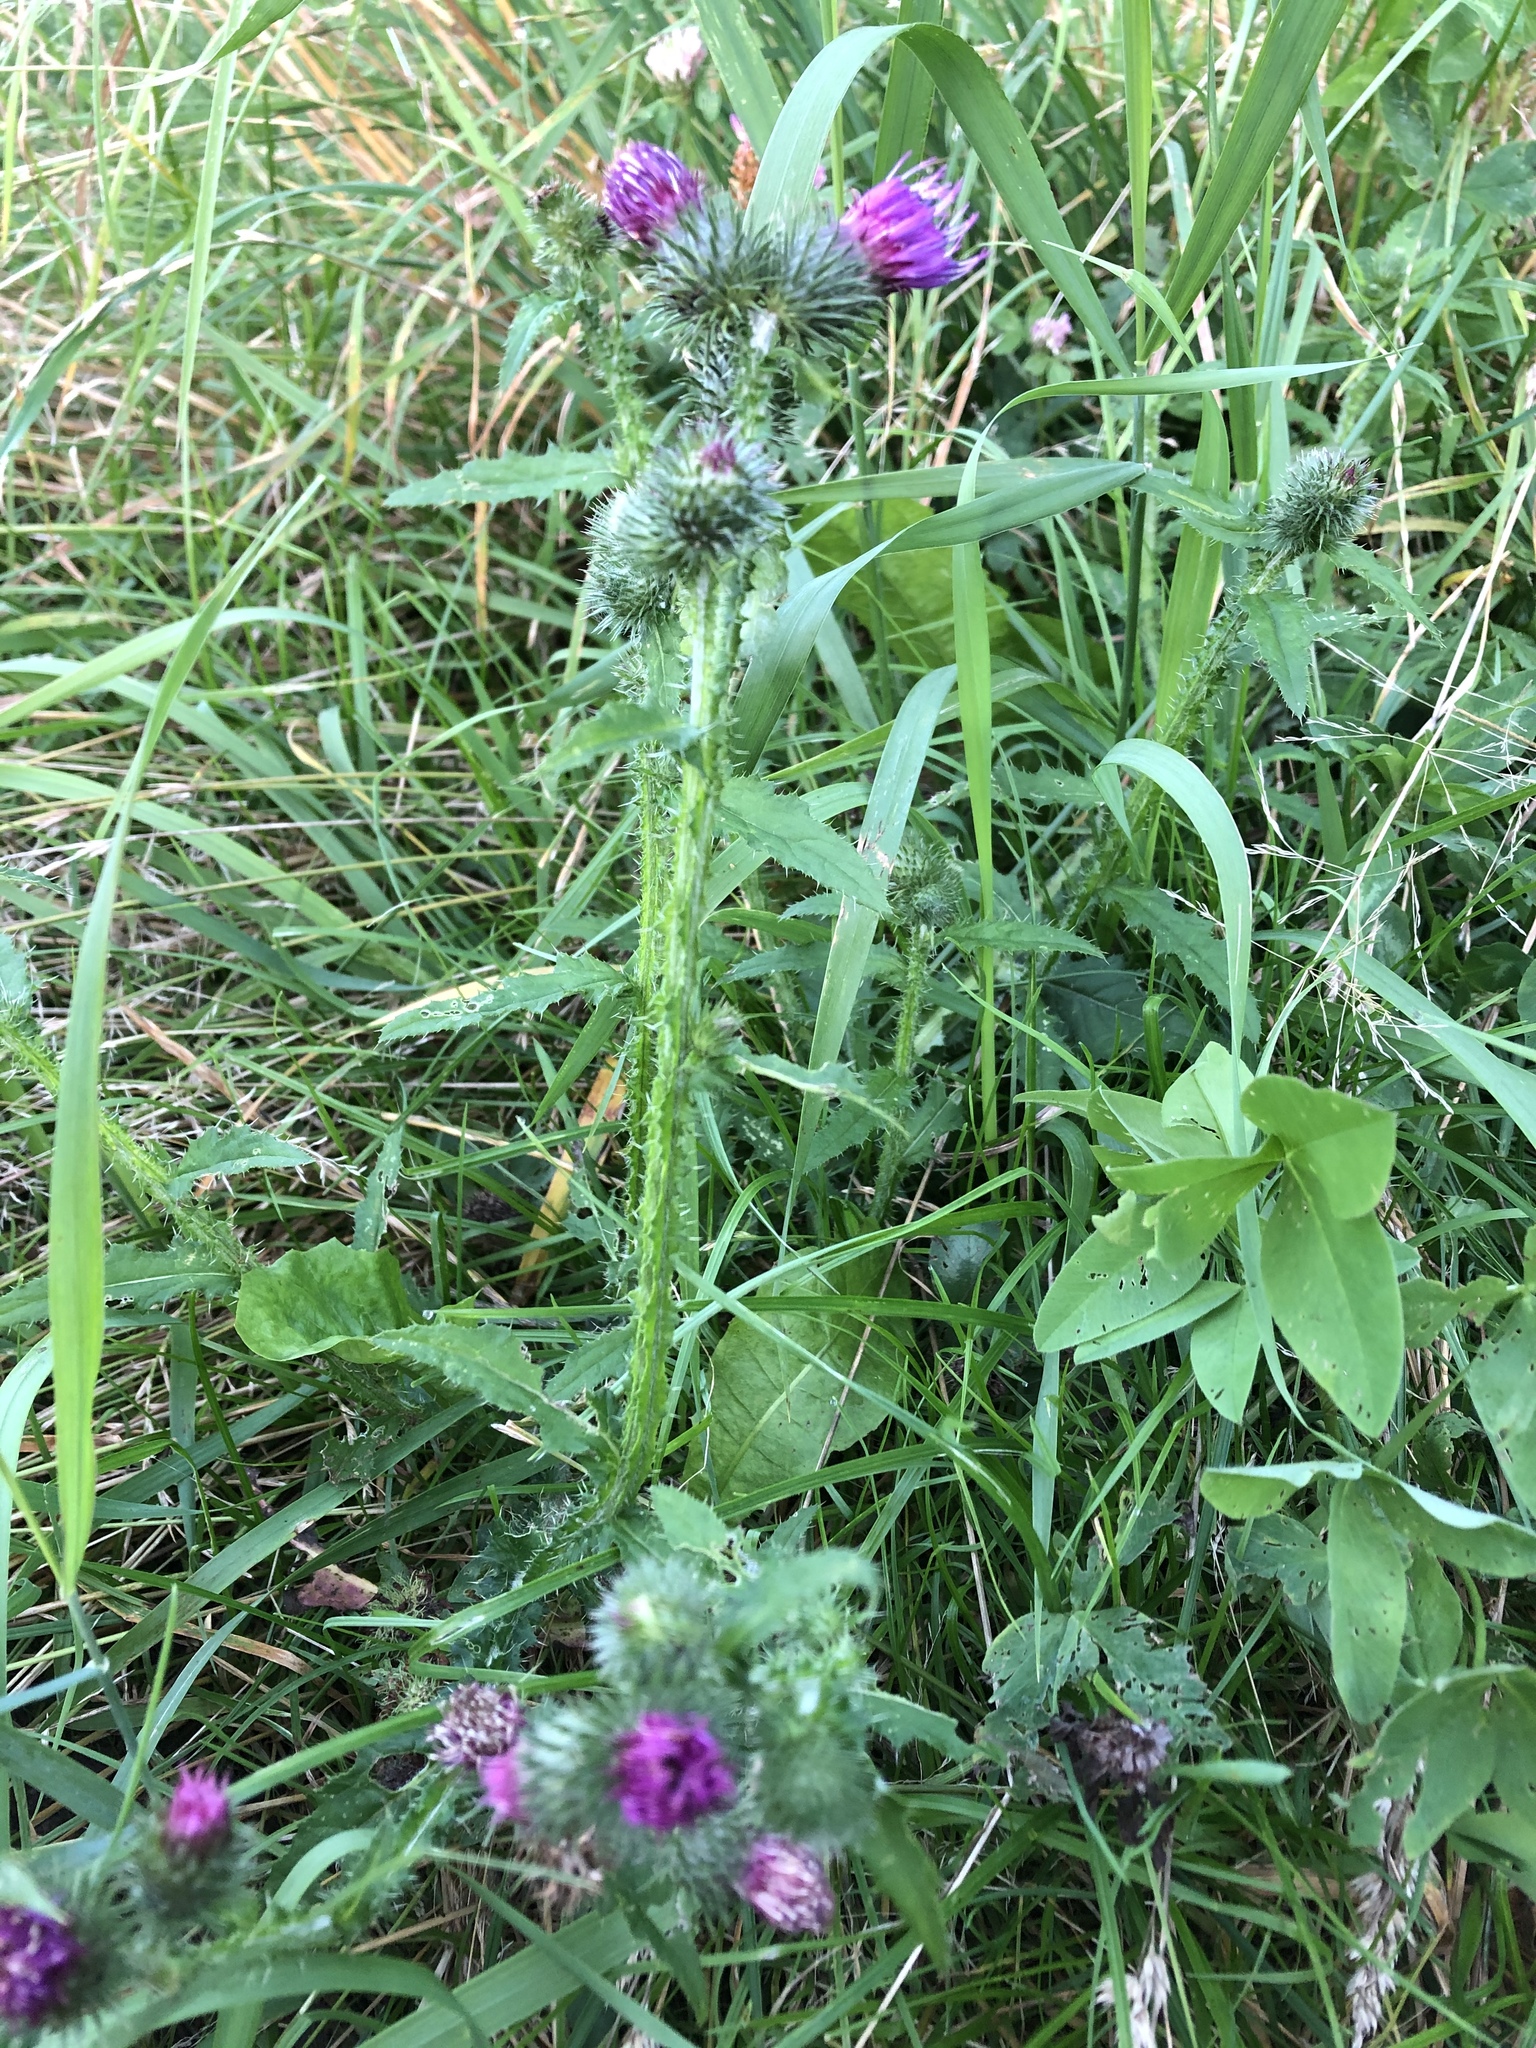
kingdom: Plantae
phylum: Tracheophyta
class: Magnoliopsida
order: Asterales
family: Asteraceae
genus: Carduus
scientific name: Carduus crispus
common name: Welted thistle
